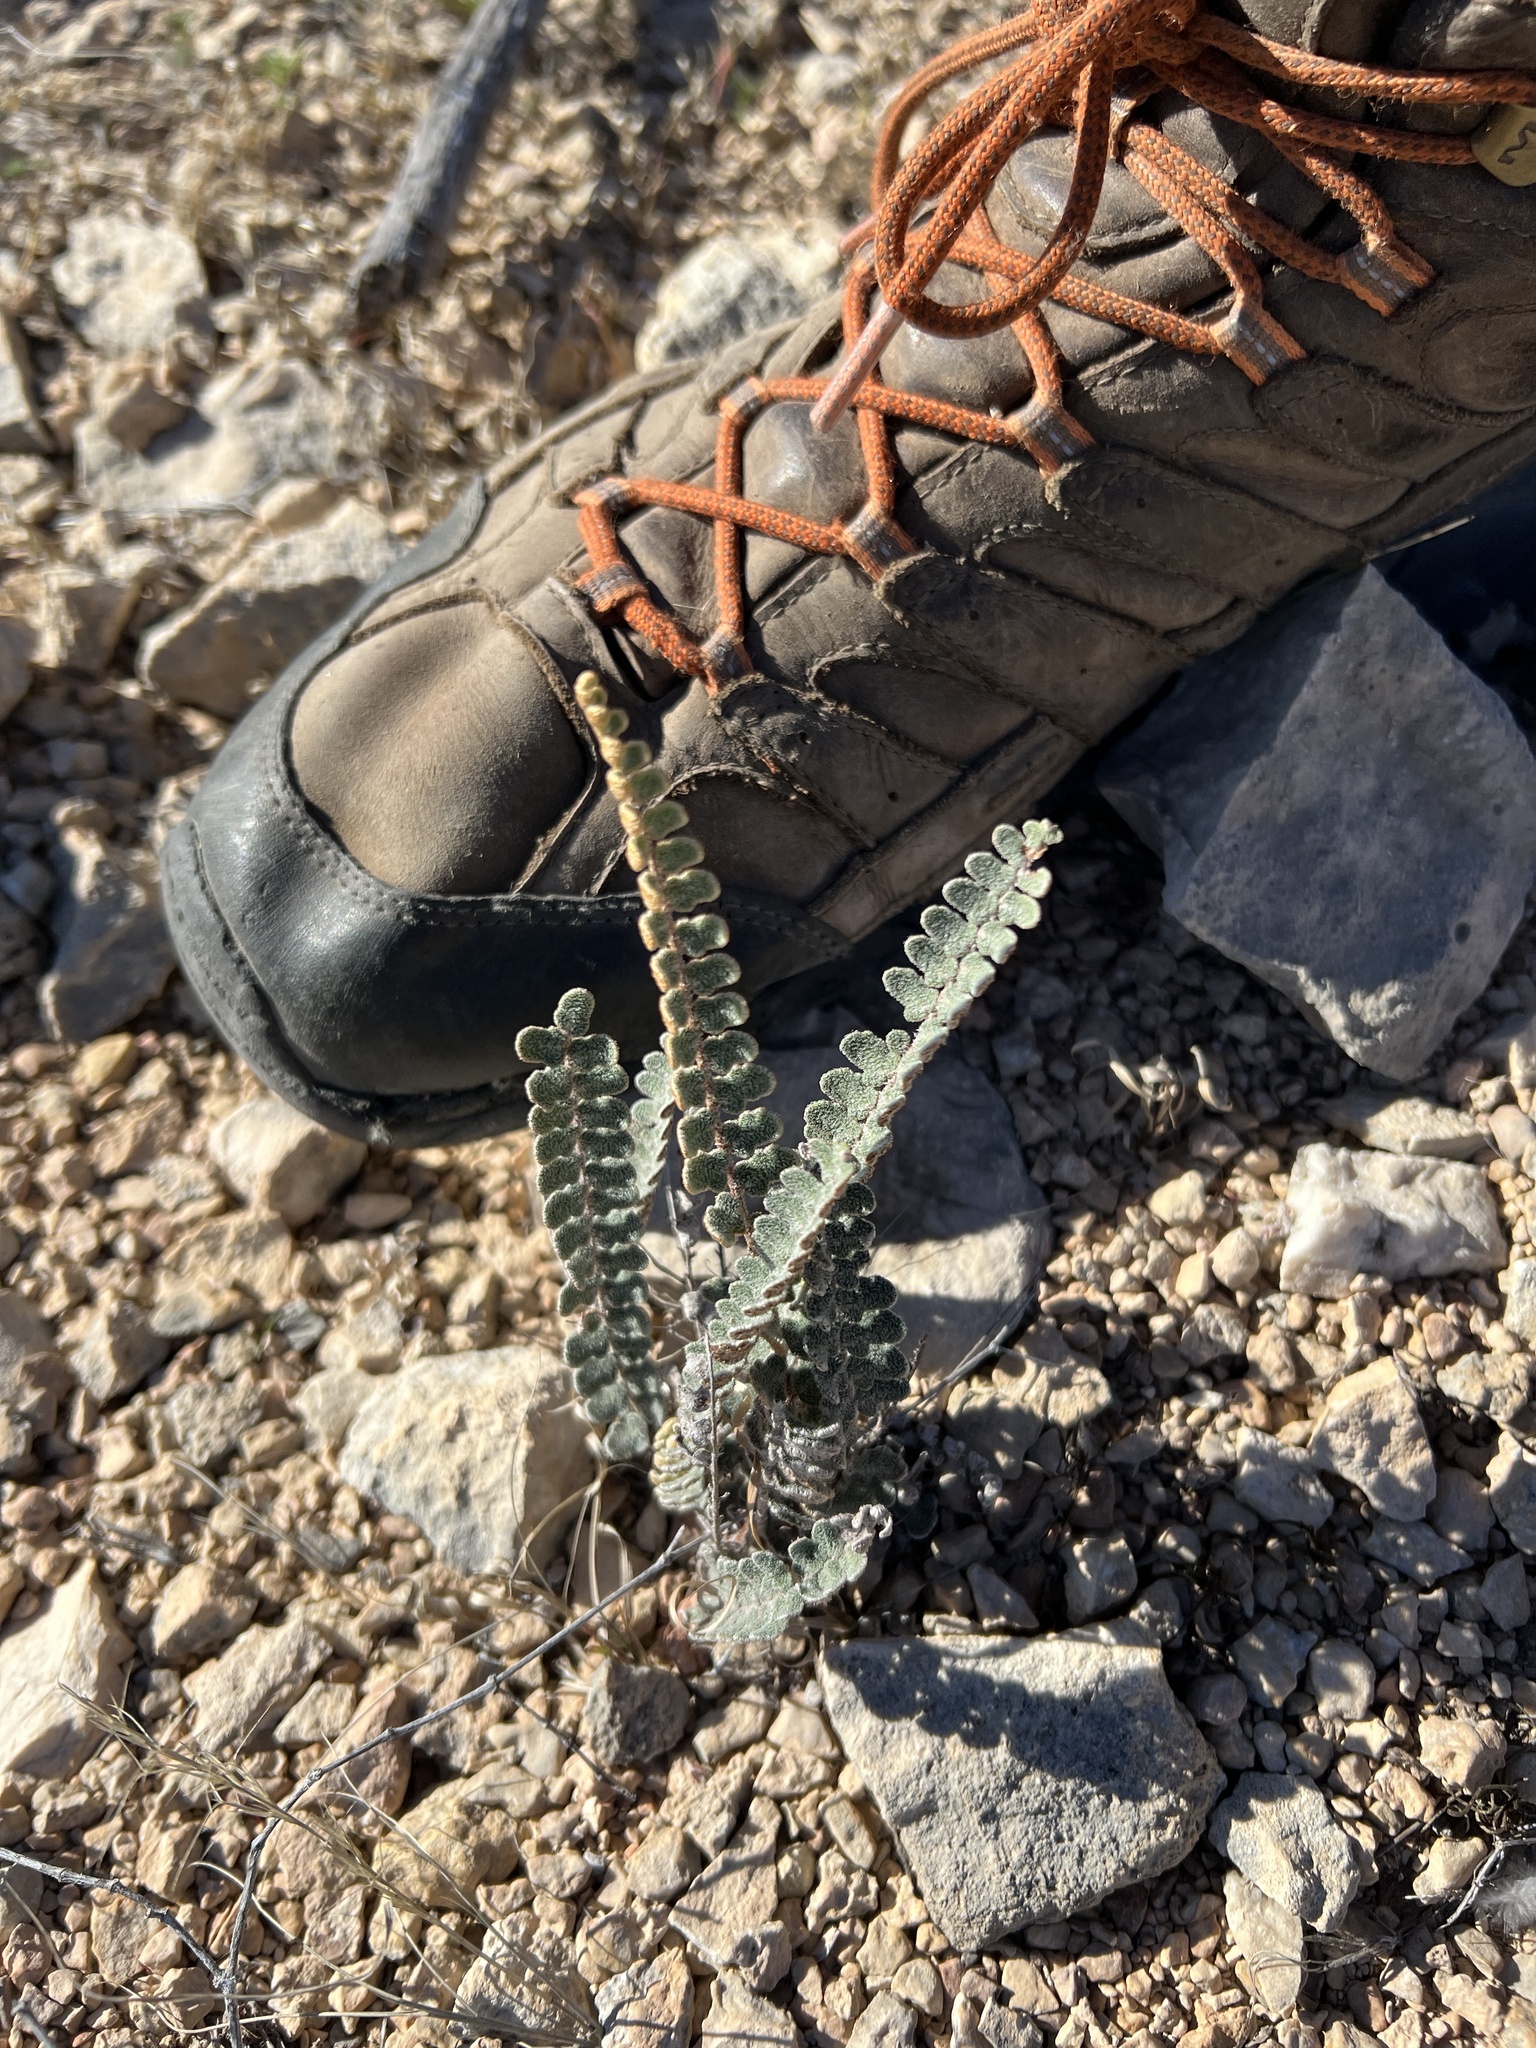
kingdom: Plantae
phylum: Tracheophyta
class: Polypodiopsida
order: Polypodiales
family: Pteridaceae
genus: Astrolepis
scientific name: Astrolepis cochisensis
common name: Scaly cloak fern
